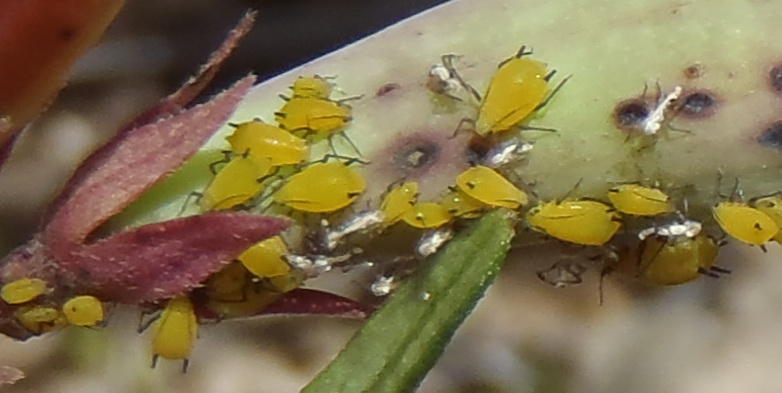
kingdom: Animalia
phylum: Arthropoda
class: Insecta
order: Hemiptera
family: Aphididae
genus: Aphis
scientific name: Aphis nerii
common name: Oleander aphid
